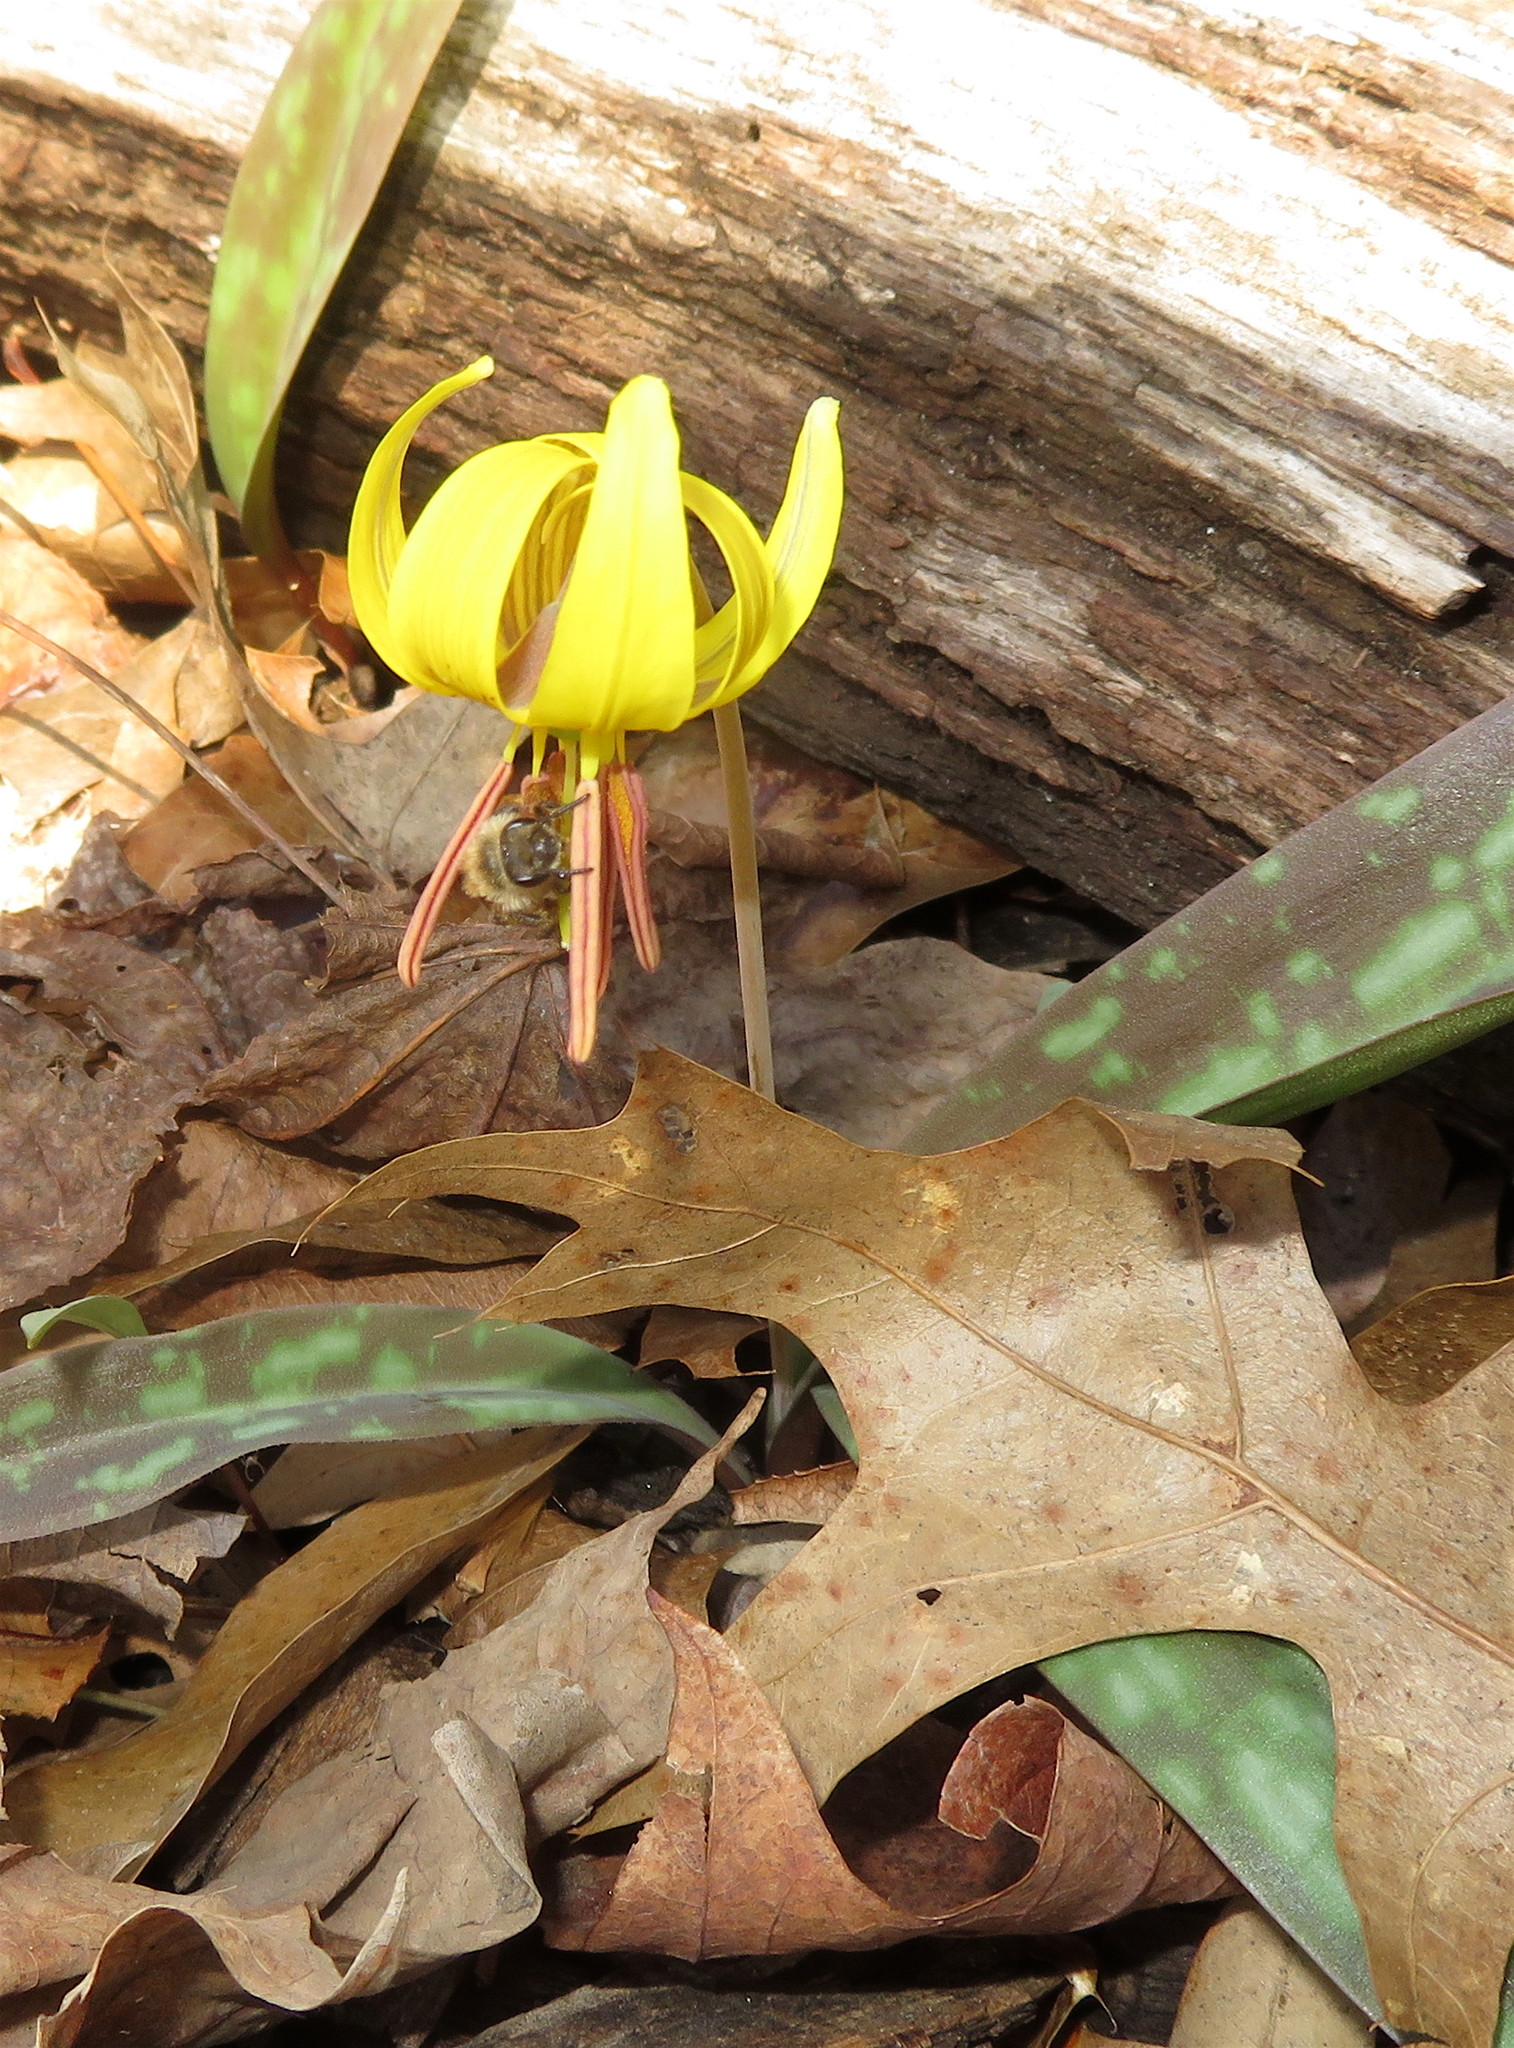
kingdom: Plantae
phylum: Tracheophyta
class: Liliopsida
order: Liliales
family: Liliaceae
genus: Erythronium
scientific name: Erythronium americanum
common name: Yellow adder's-tongue
